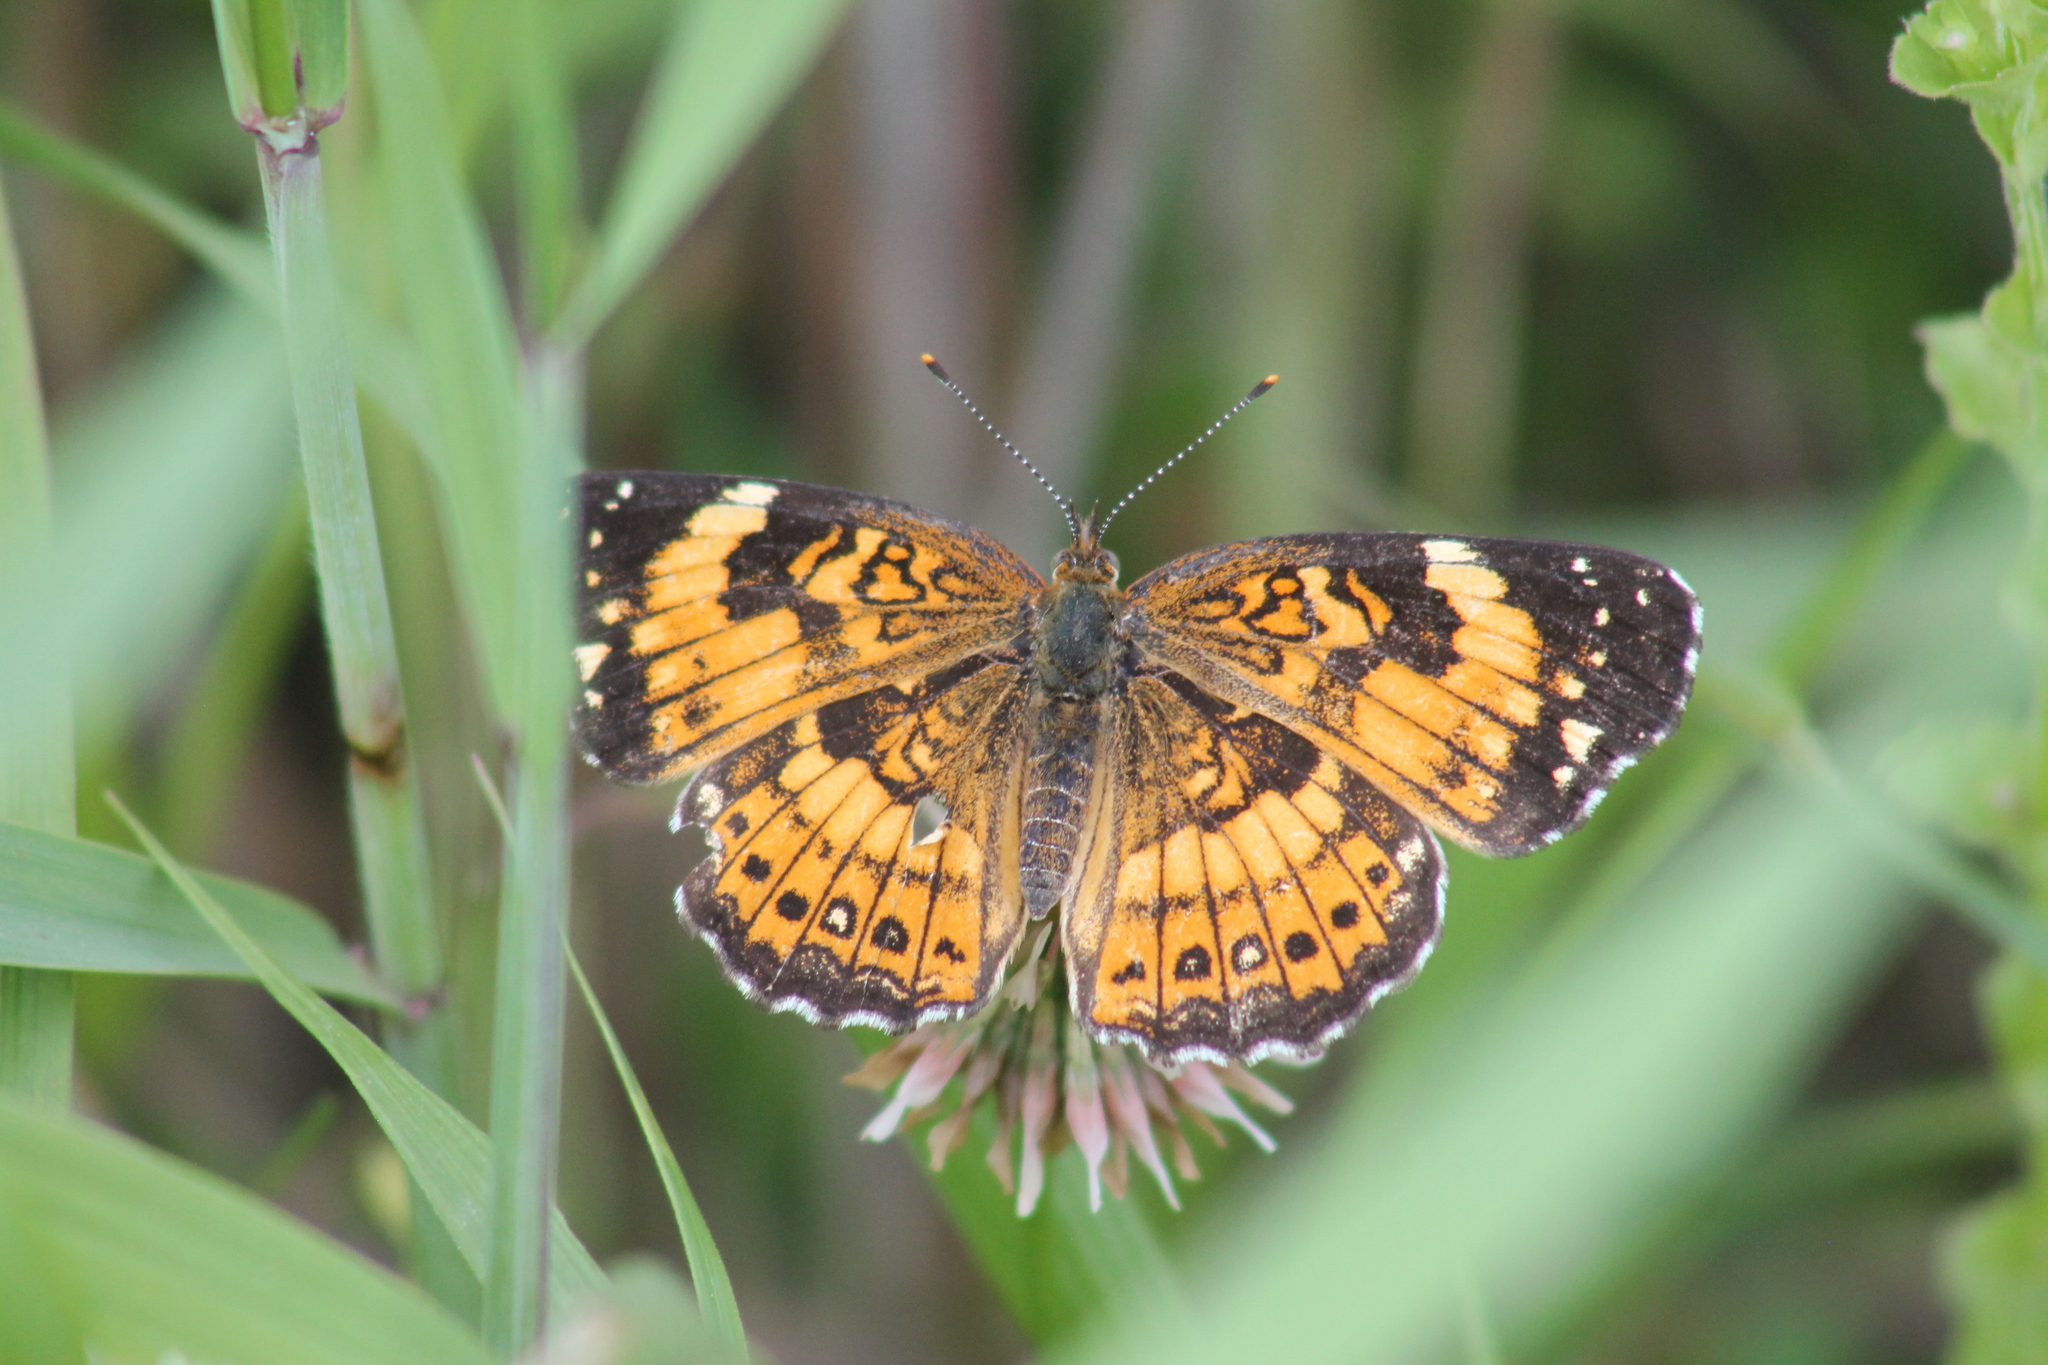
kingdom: Animalia
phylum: Arthropoda
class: Insecta
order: Lepidoptera
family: Nymphalidae
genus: Chlosyne
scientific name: Chlosyne nycteis
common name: Silvery checkerspot
